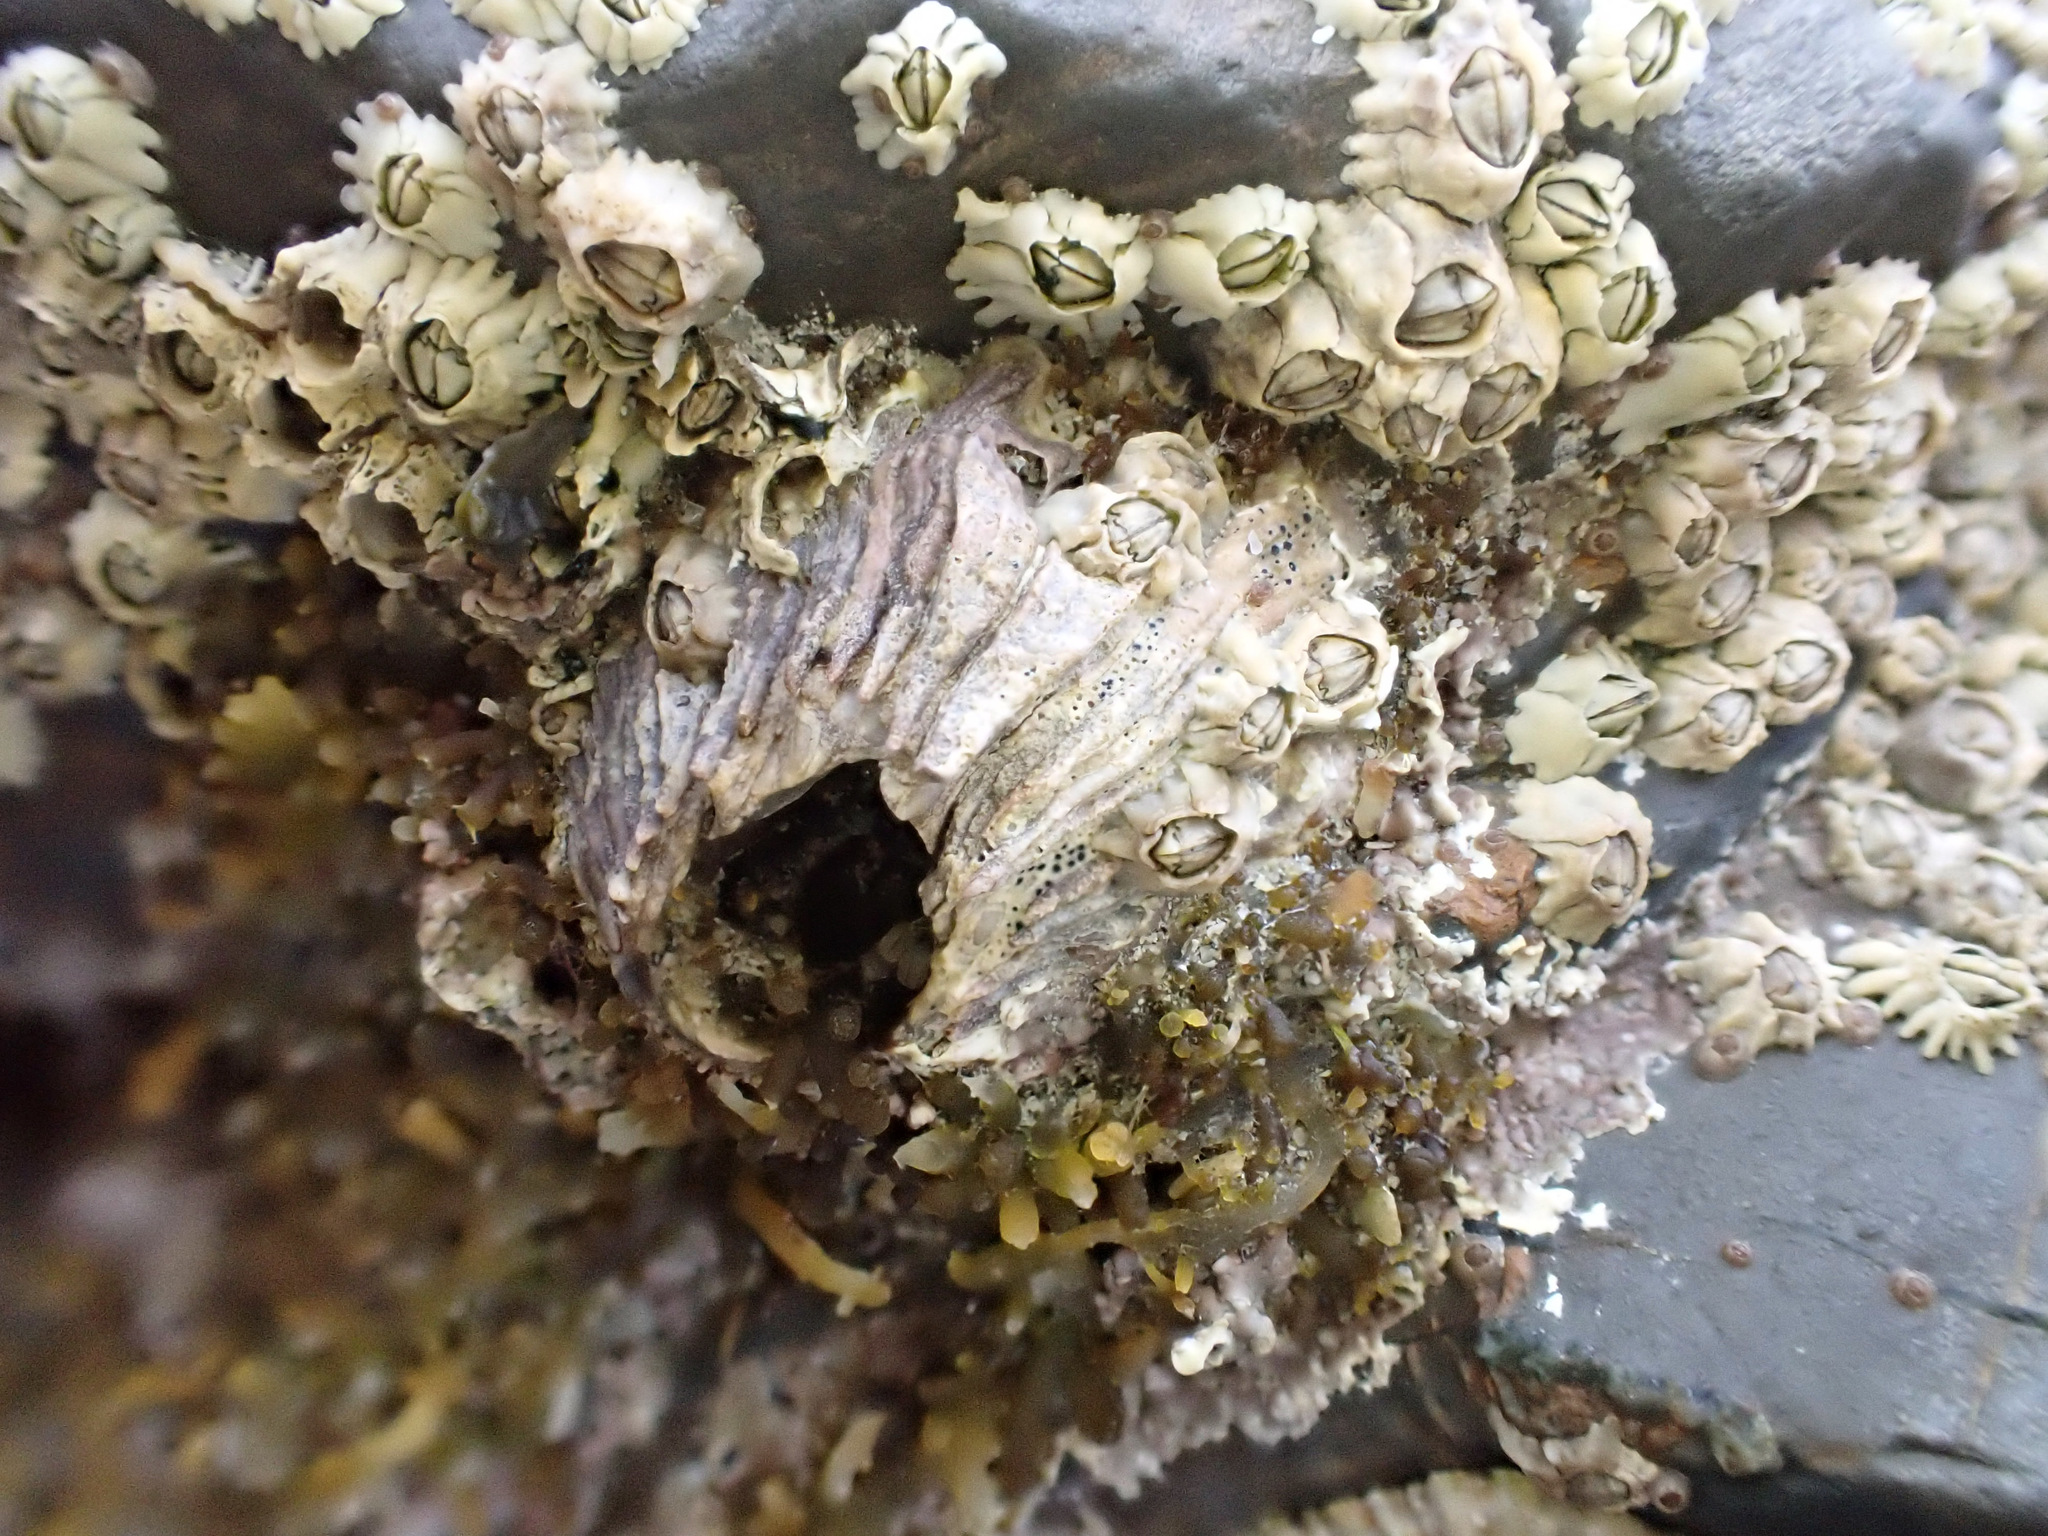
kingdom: Animalia
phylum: Arthropoda
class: Maxillopoda
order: Sessilia
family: Balanidae
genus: Perforatus
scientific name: Perforatus perforatus
